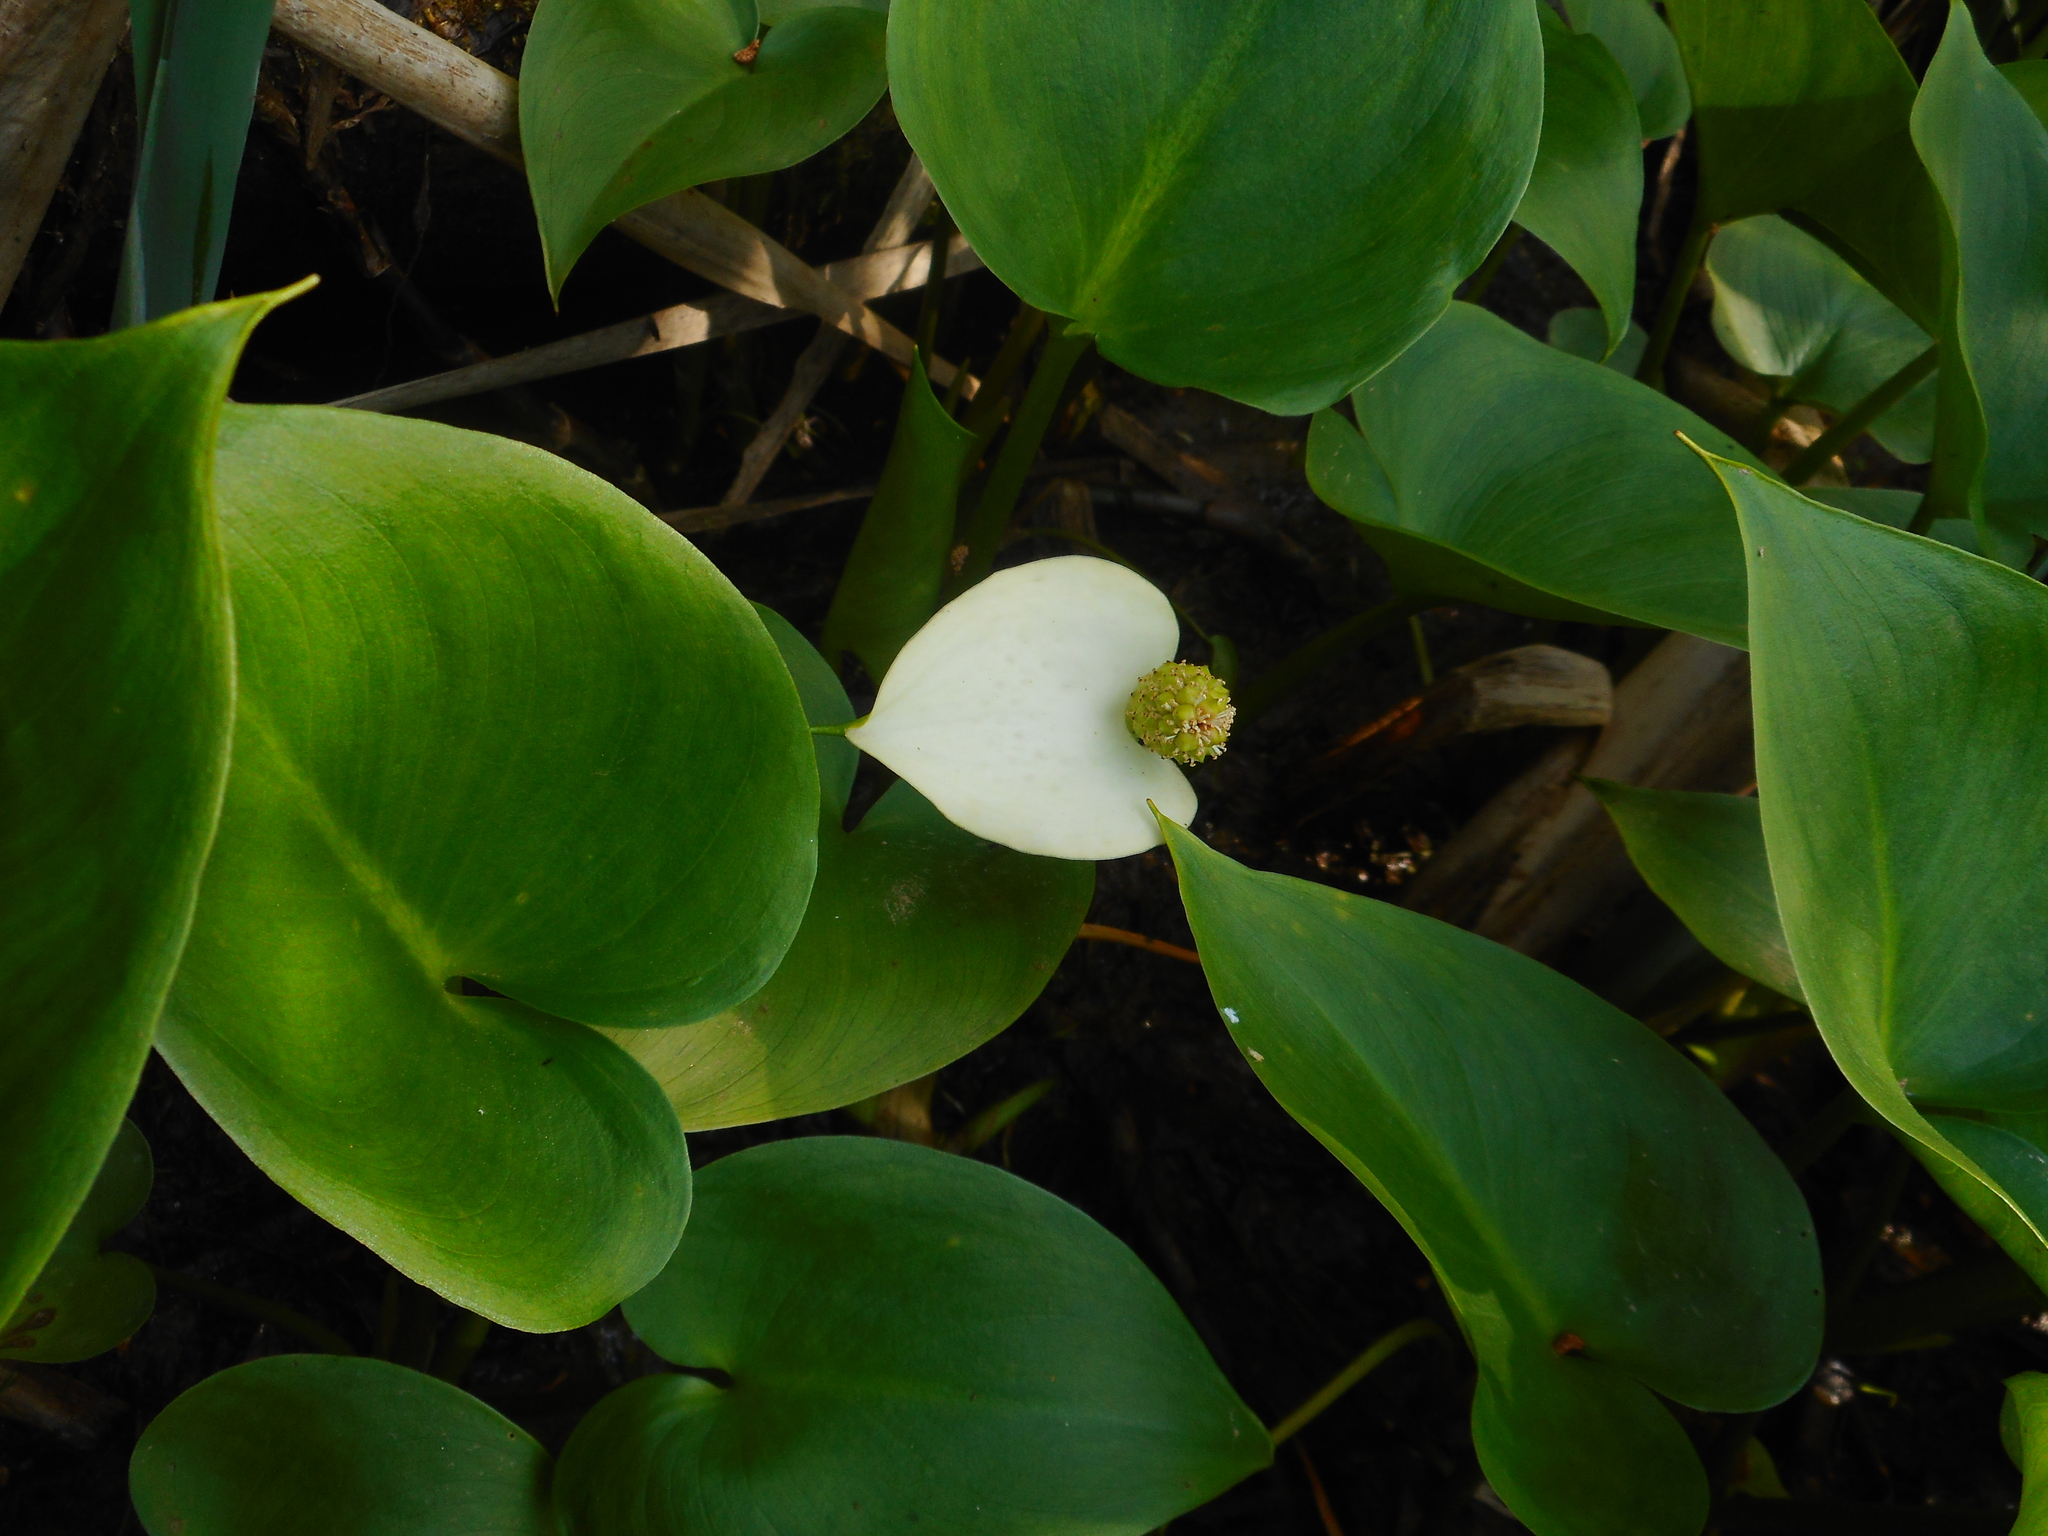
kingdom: Plantae
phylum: Tracheophyta
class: Liliopsida
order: Alismatales
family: Araceae
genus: Calla
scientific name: Calla palustris
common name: Bog arum
